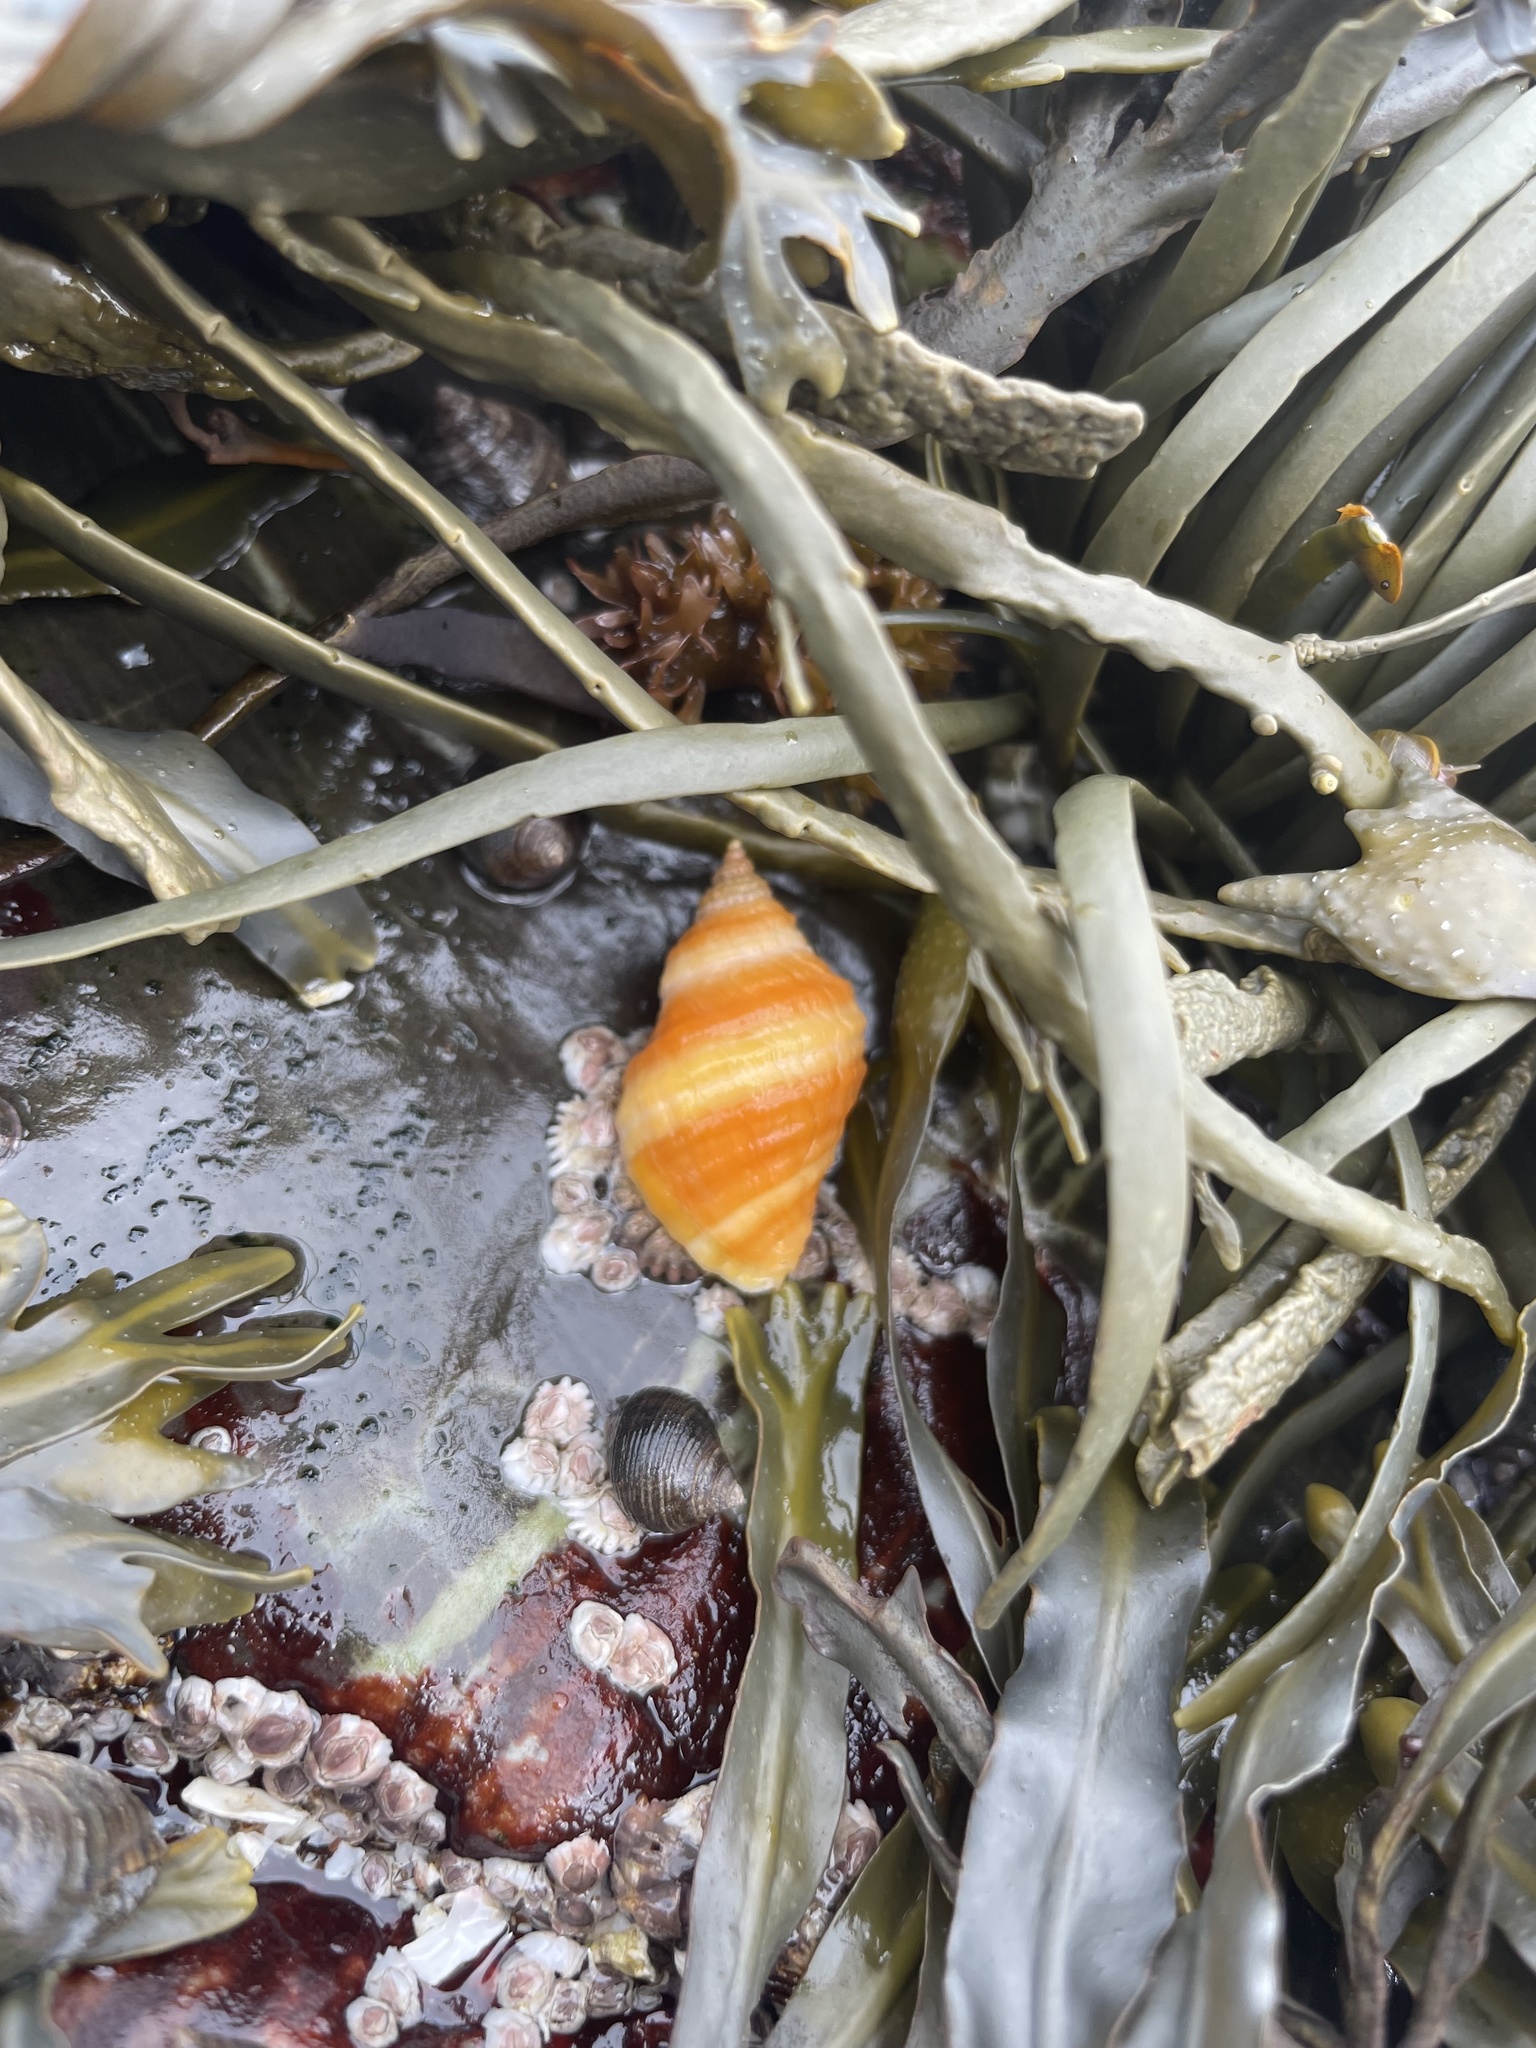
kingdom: Animalia
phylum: Mollusca
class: Gastropoda
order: Neogastropoda
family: Muricidae
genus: Nucella
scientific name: Nucella lapillus
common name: Dog whelk
